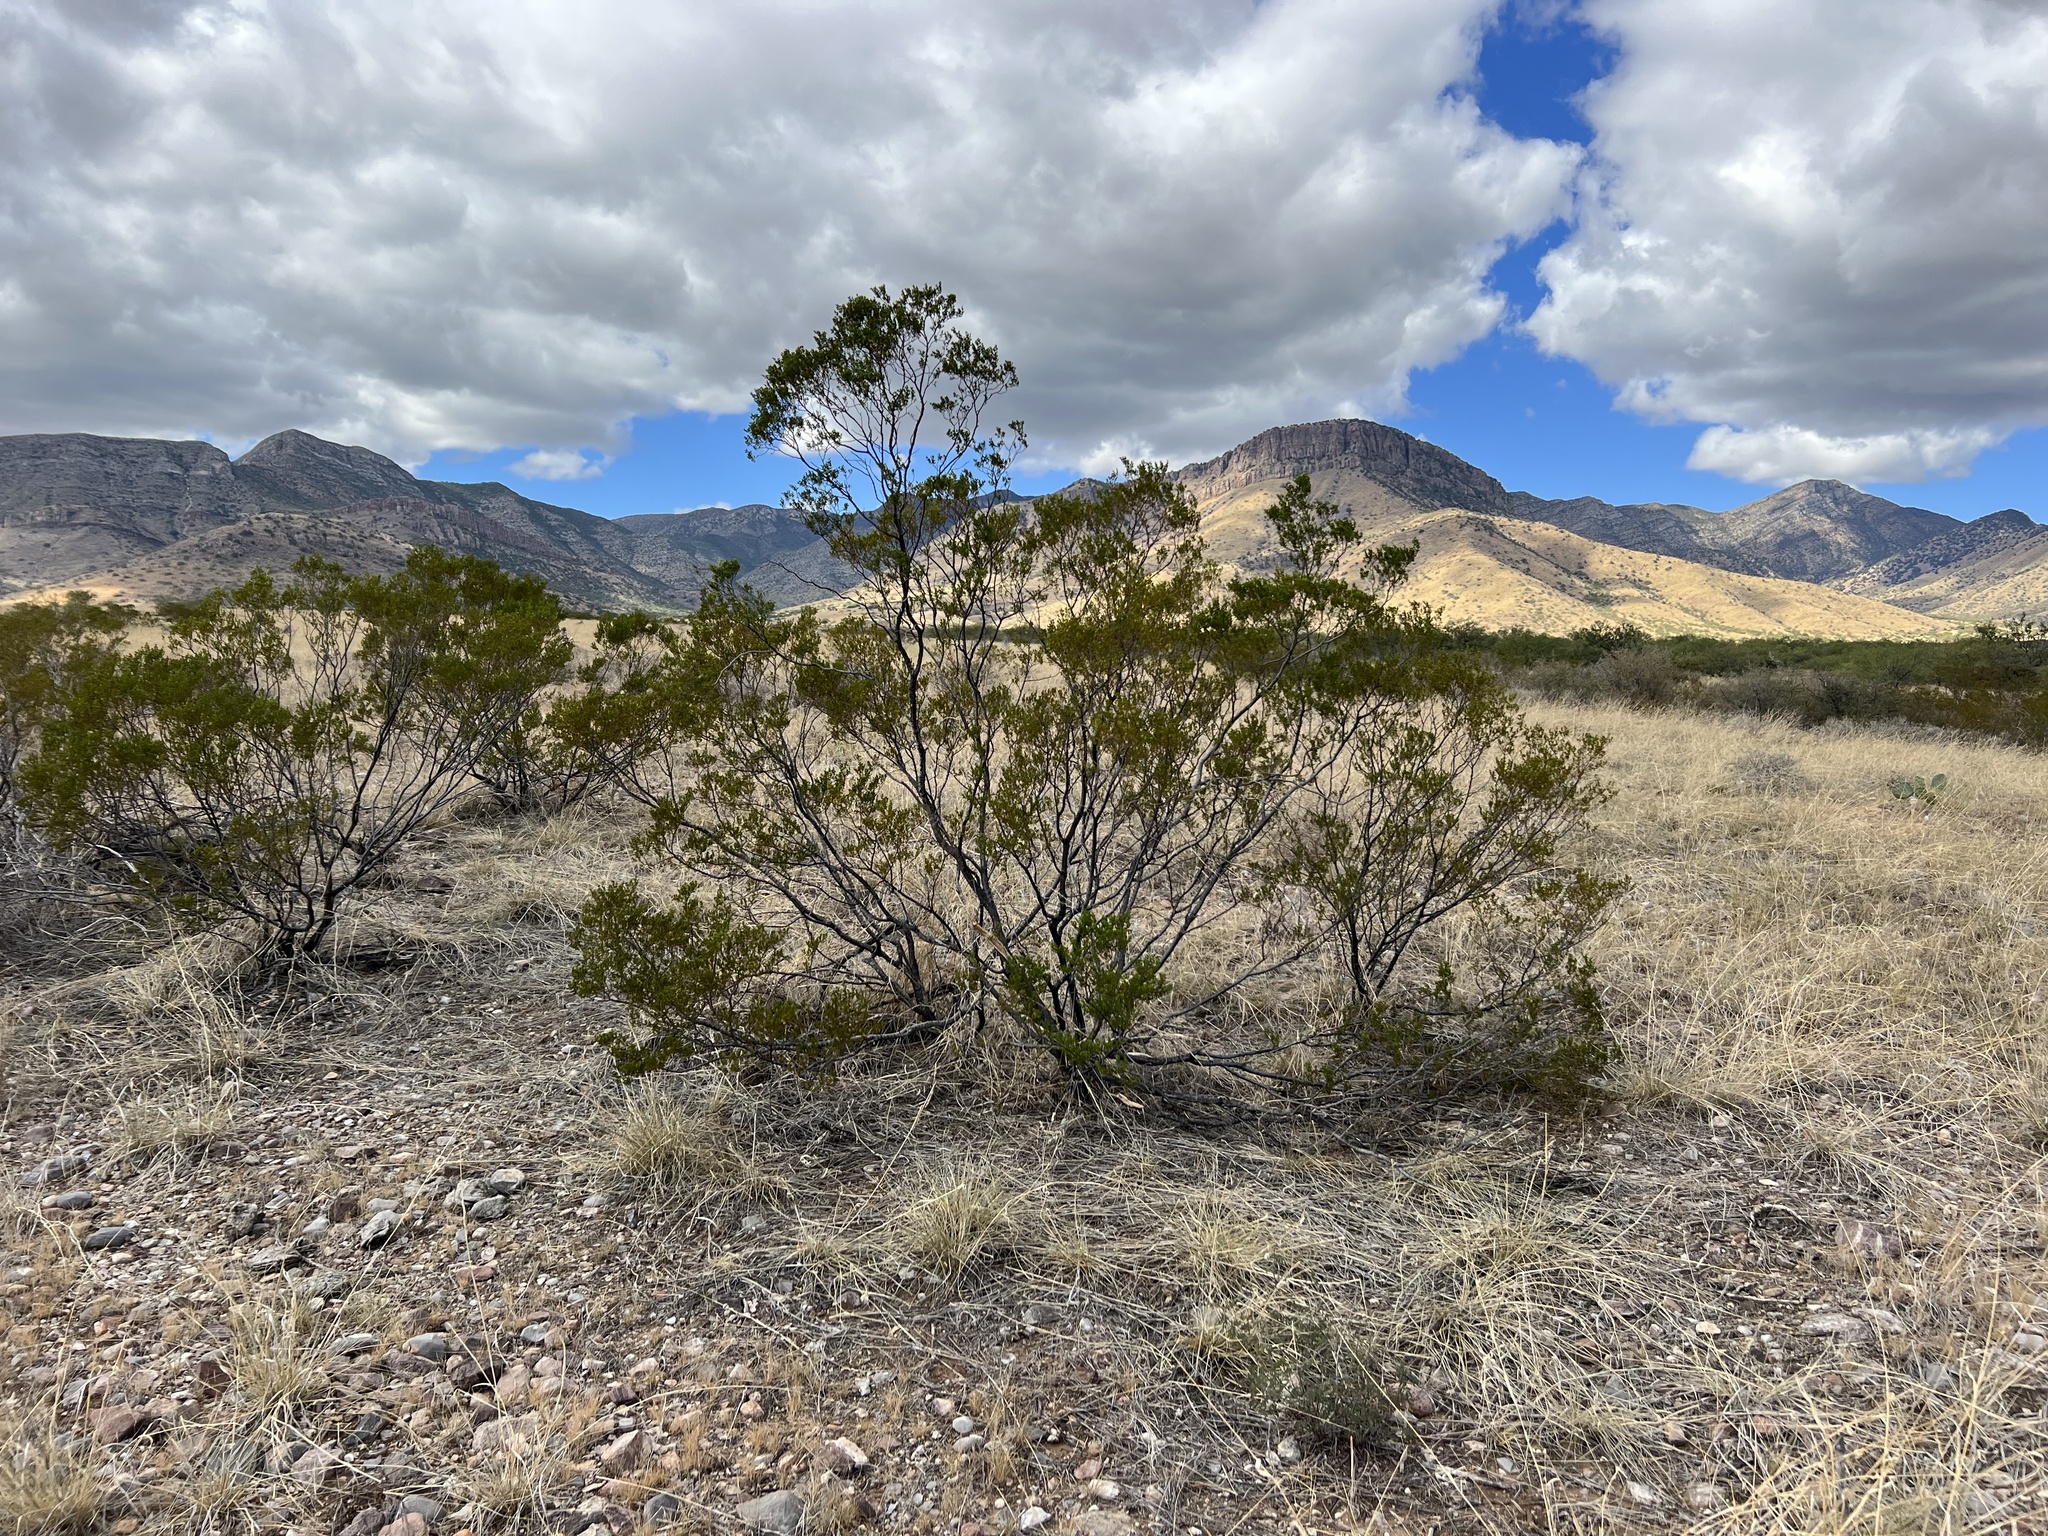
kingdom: Plantae
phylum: Tracheophyta
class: Magnoliopsida
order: Zygophyllales
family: Zygophyllaceae
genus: Larrea
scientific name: Larrea tridentata
